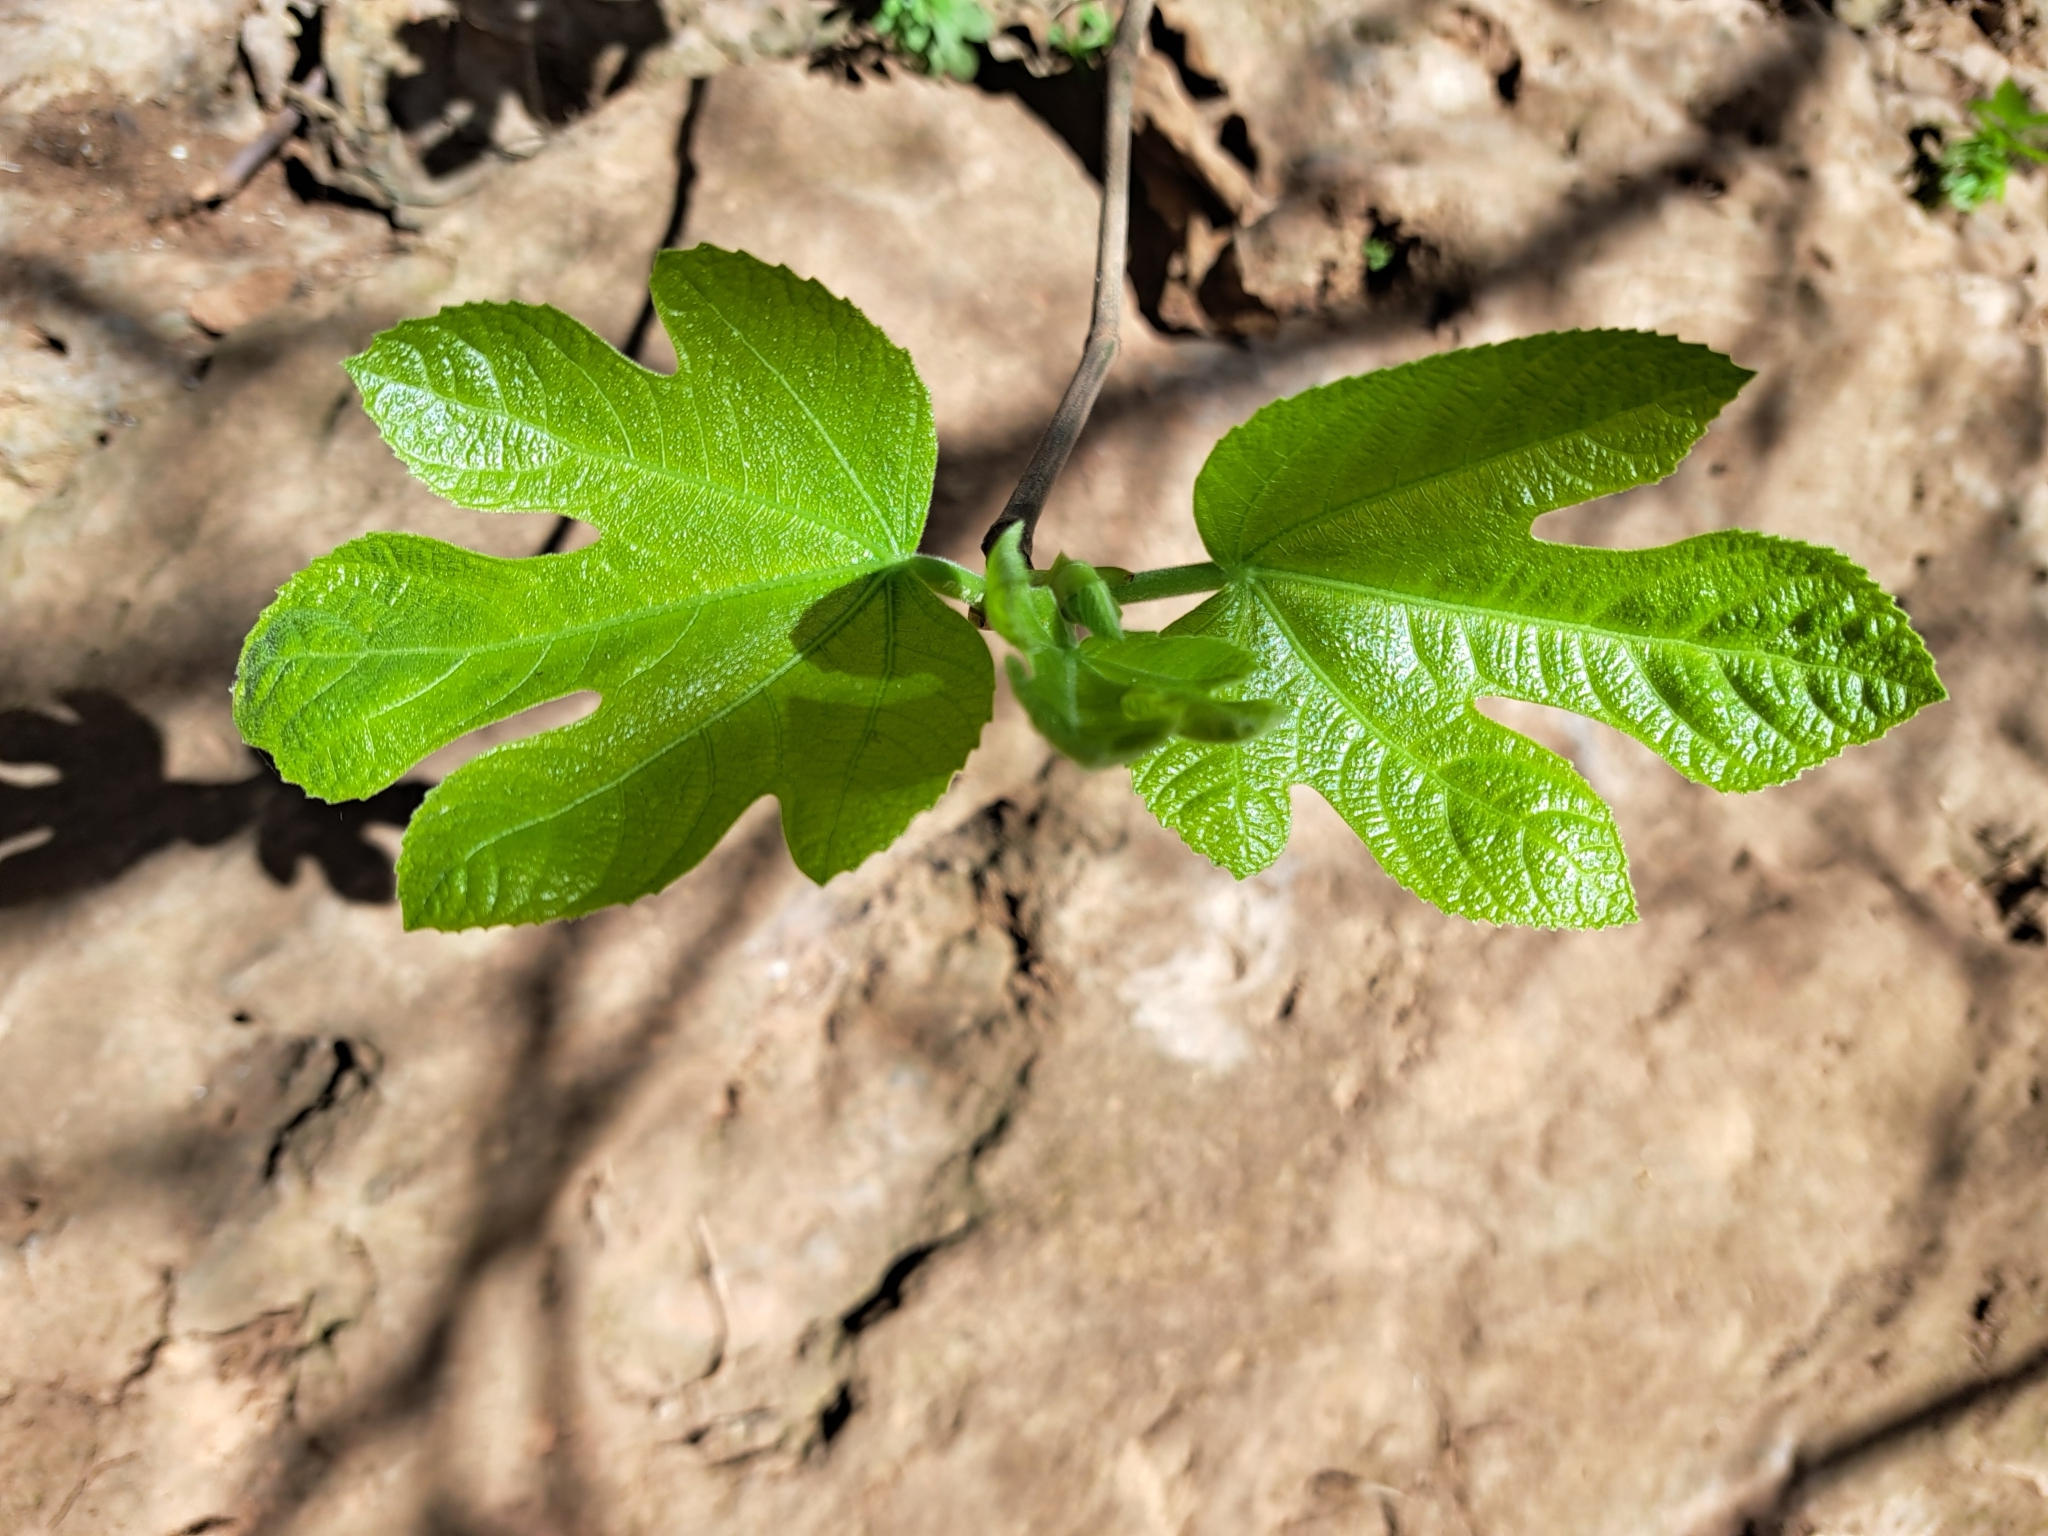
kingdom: Plantae
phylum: Tracheophyta
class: Magnoliopsida
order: Rosales
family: Moraceae
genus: Ficus
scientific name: Ficus carica
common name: Fig
